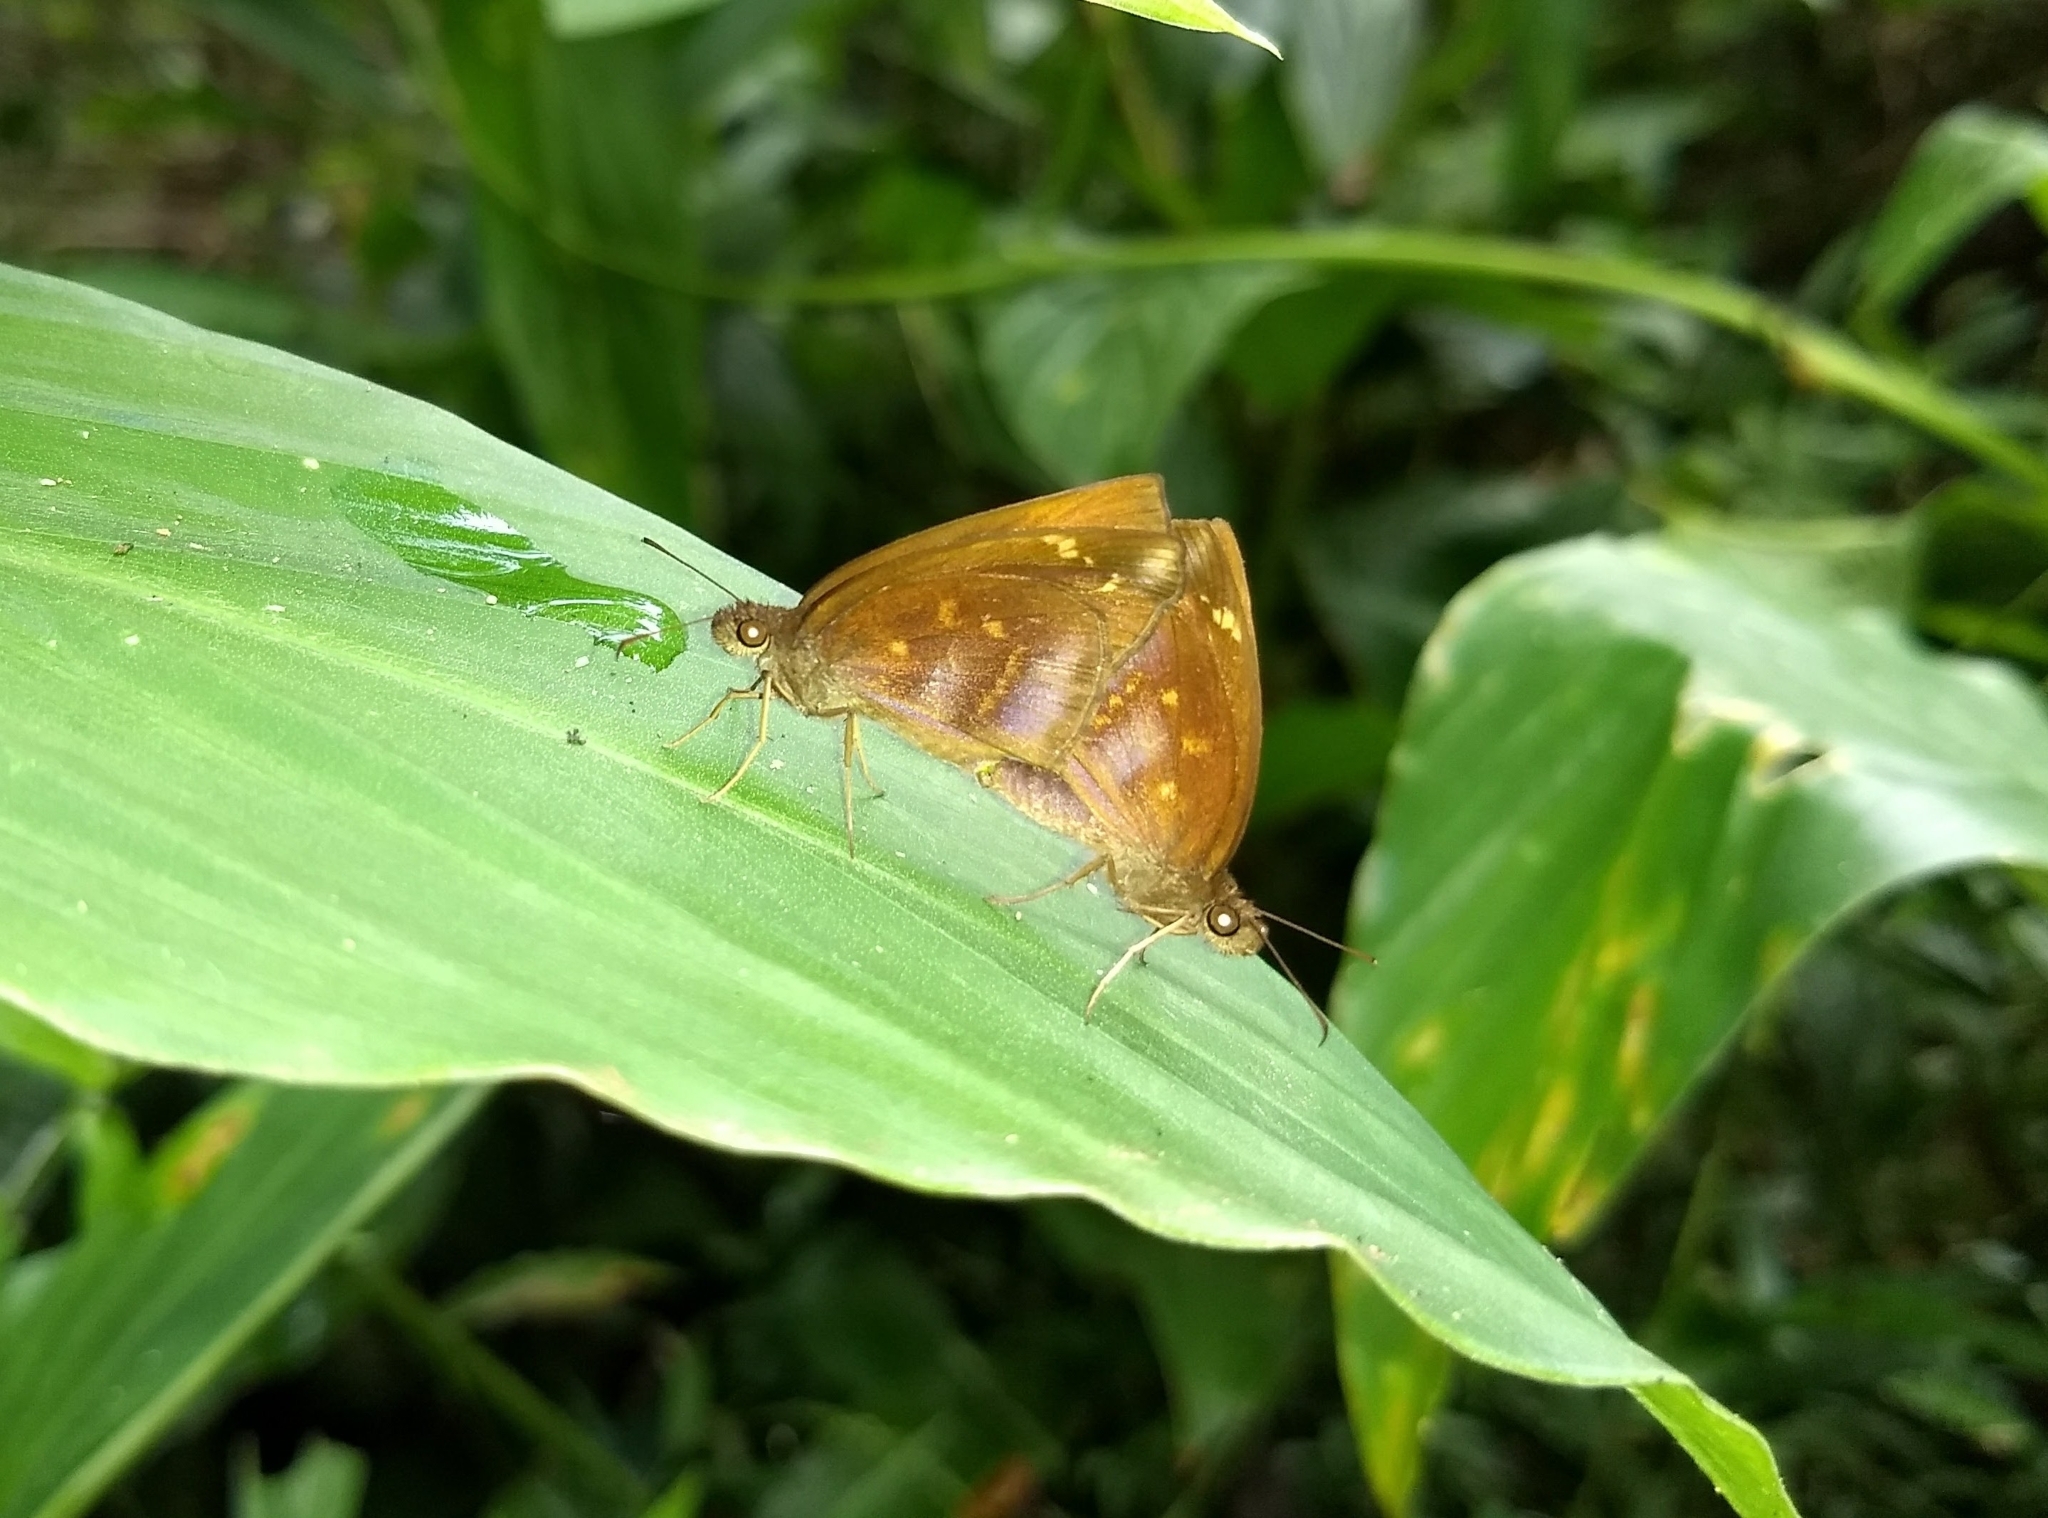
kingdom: Animalia
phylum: Arthropoda
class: Insecta
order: Lepidoptera
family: Hesperiidae
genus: Psolos
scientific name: Psolos fuligo
